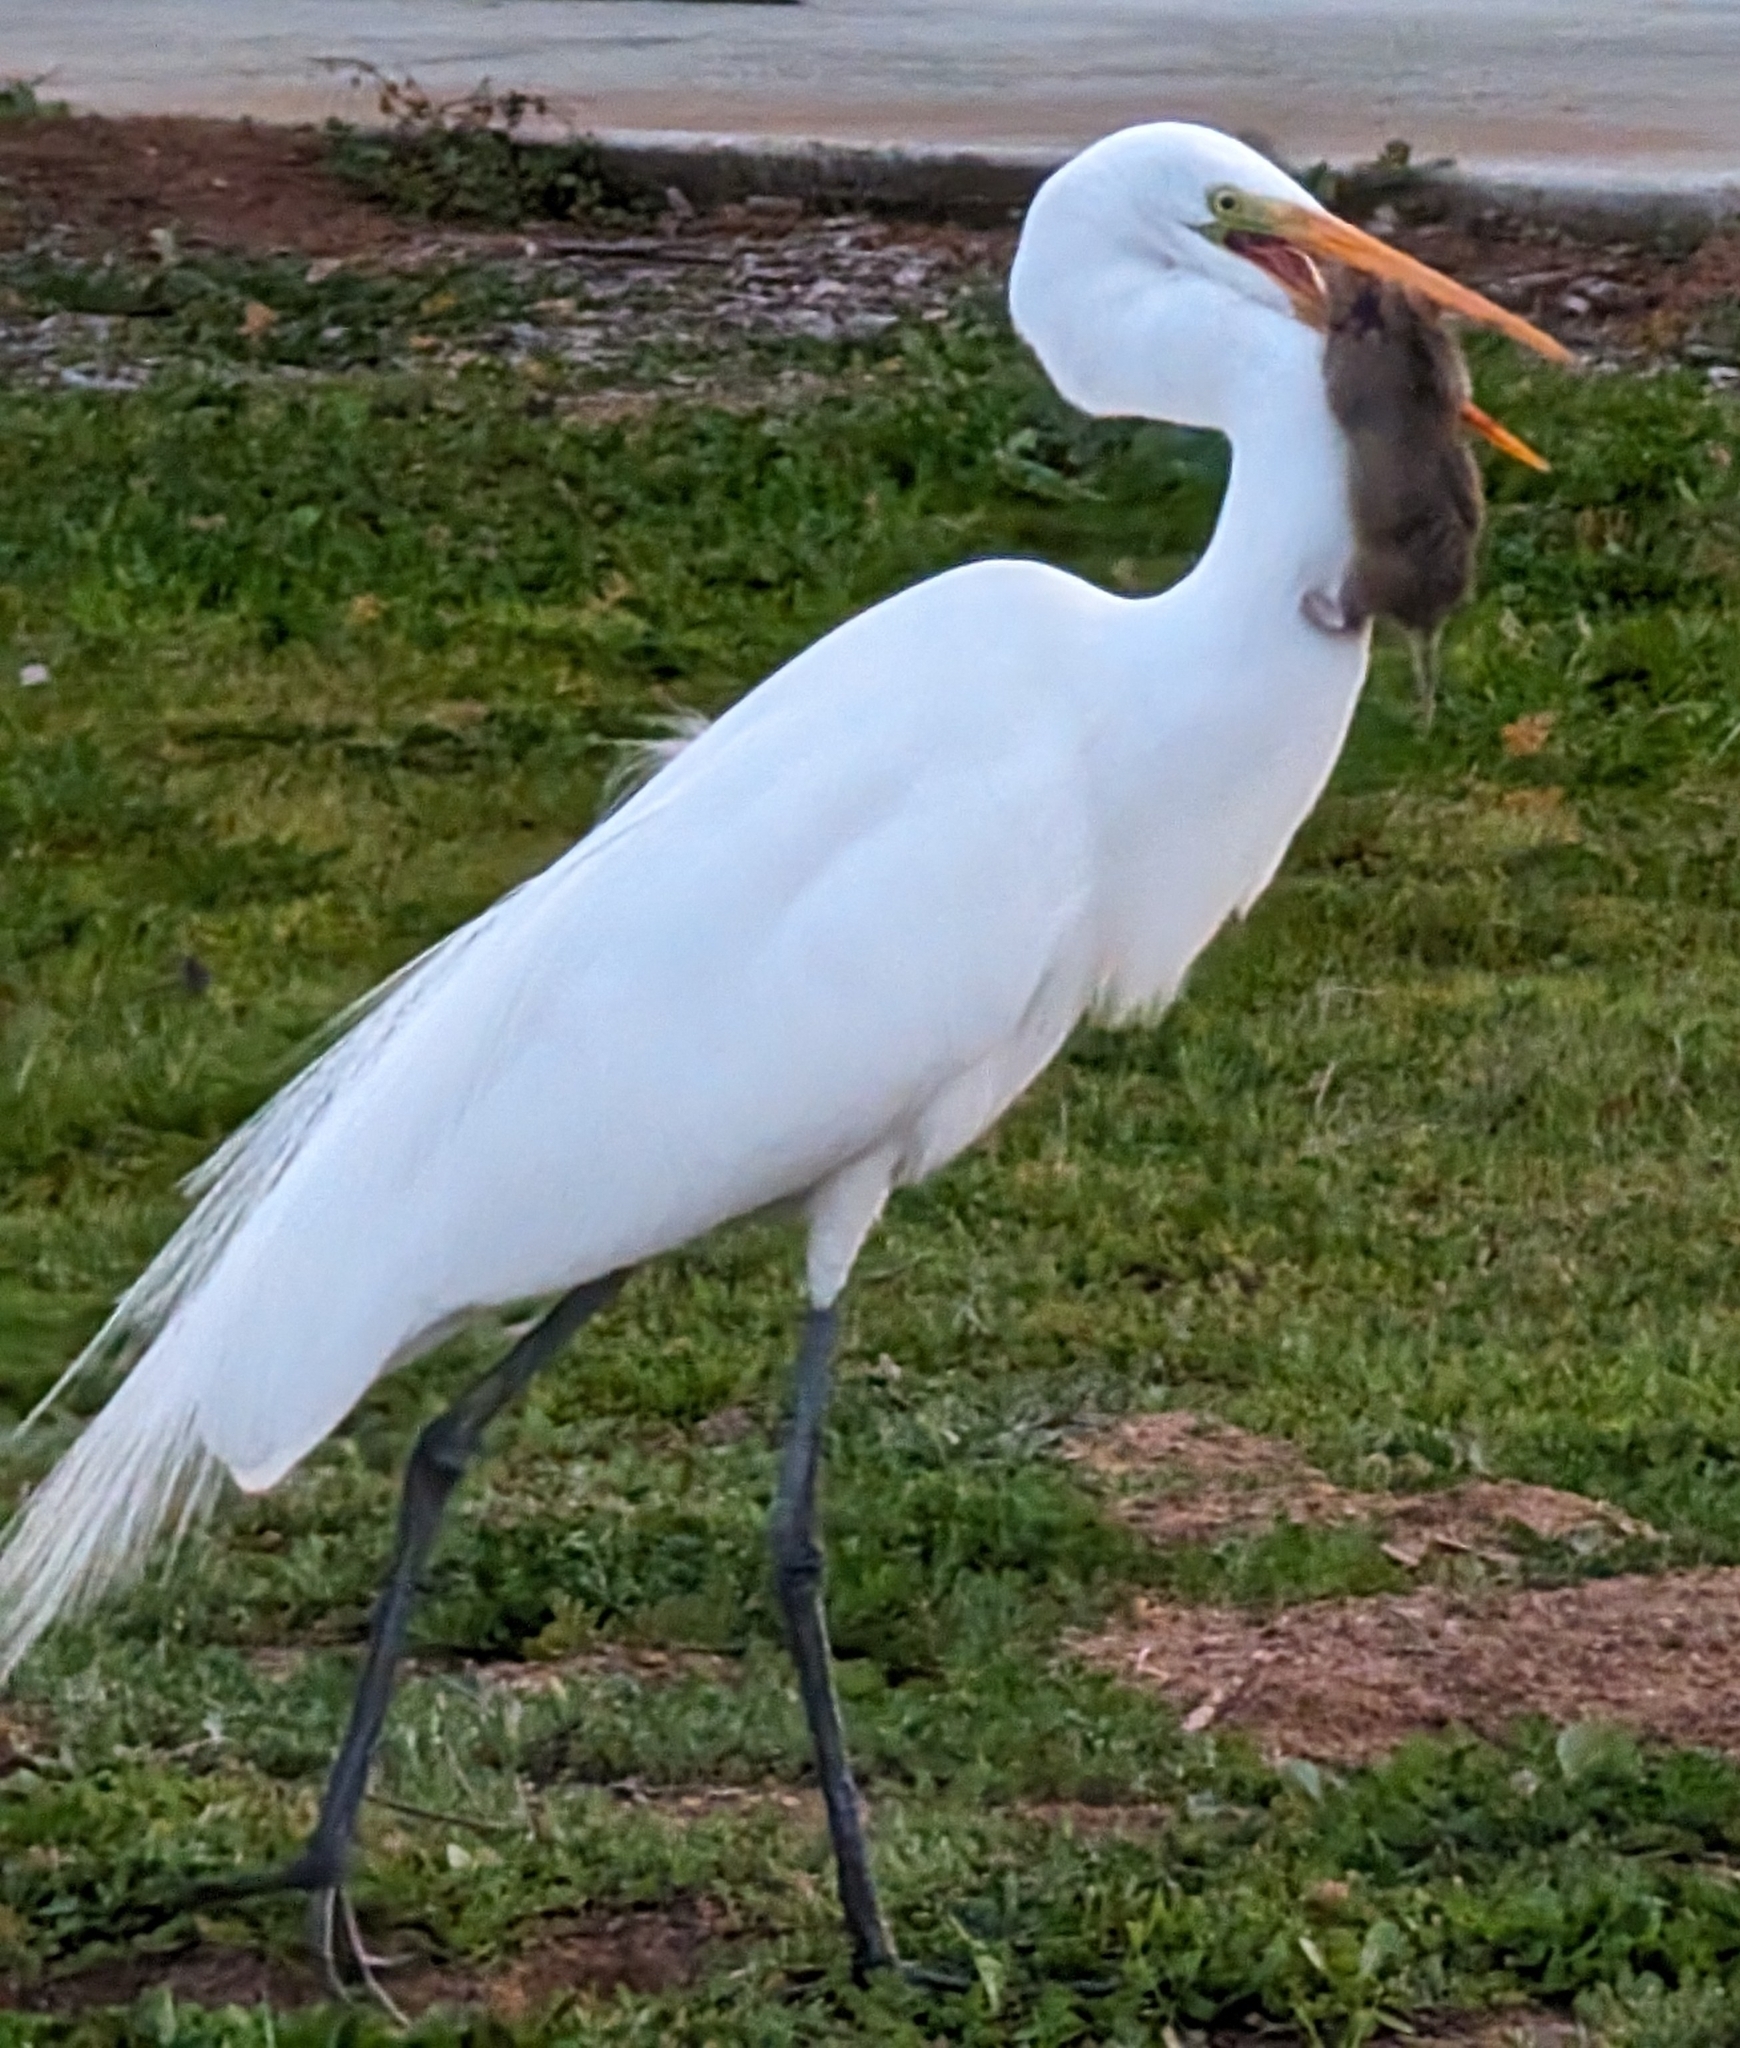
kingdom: Animalia
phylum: Chordata
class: Mammalia
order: Rodentia
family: Geomyidae
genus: Thomomys
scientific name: Thomomys bottae
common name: Botta's pocket gopher
